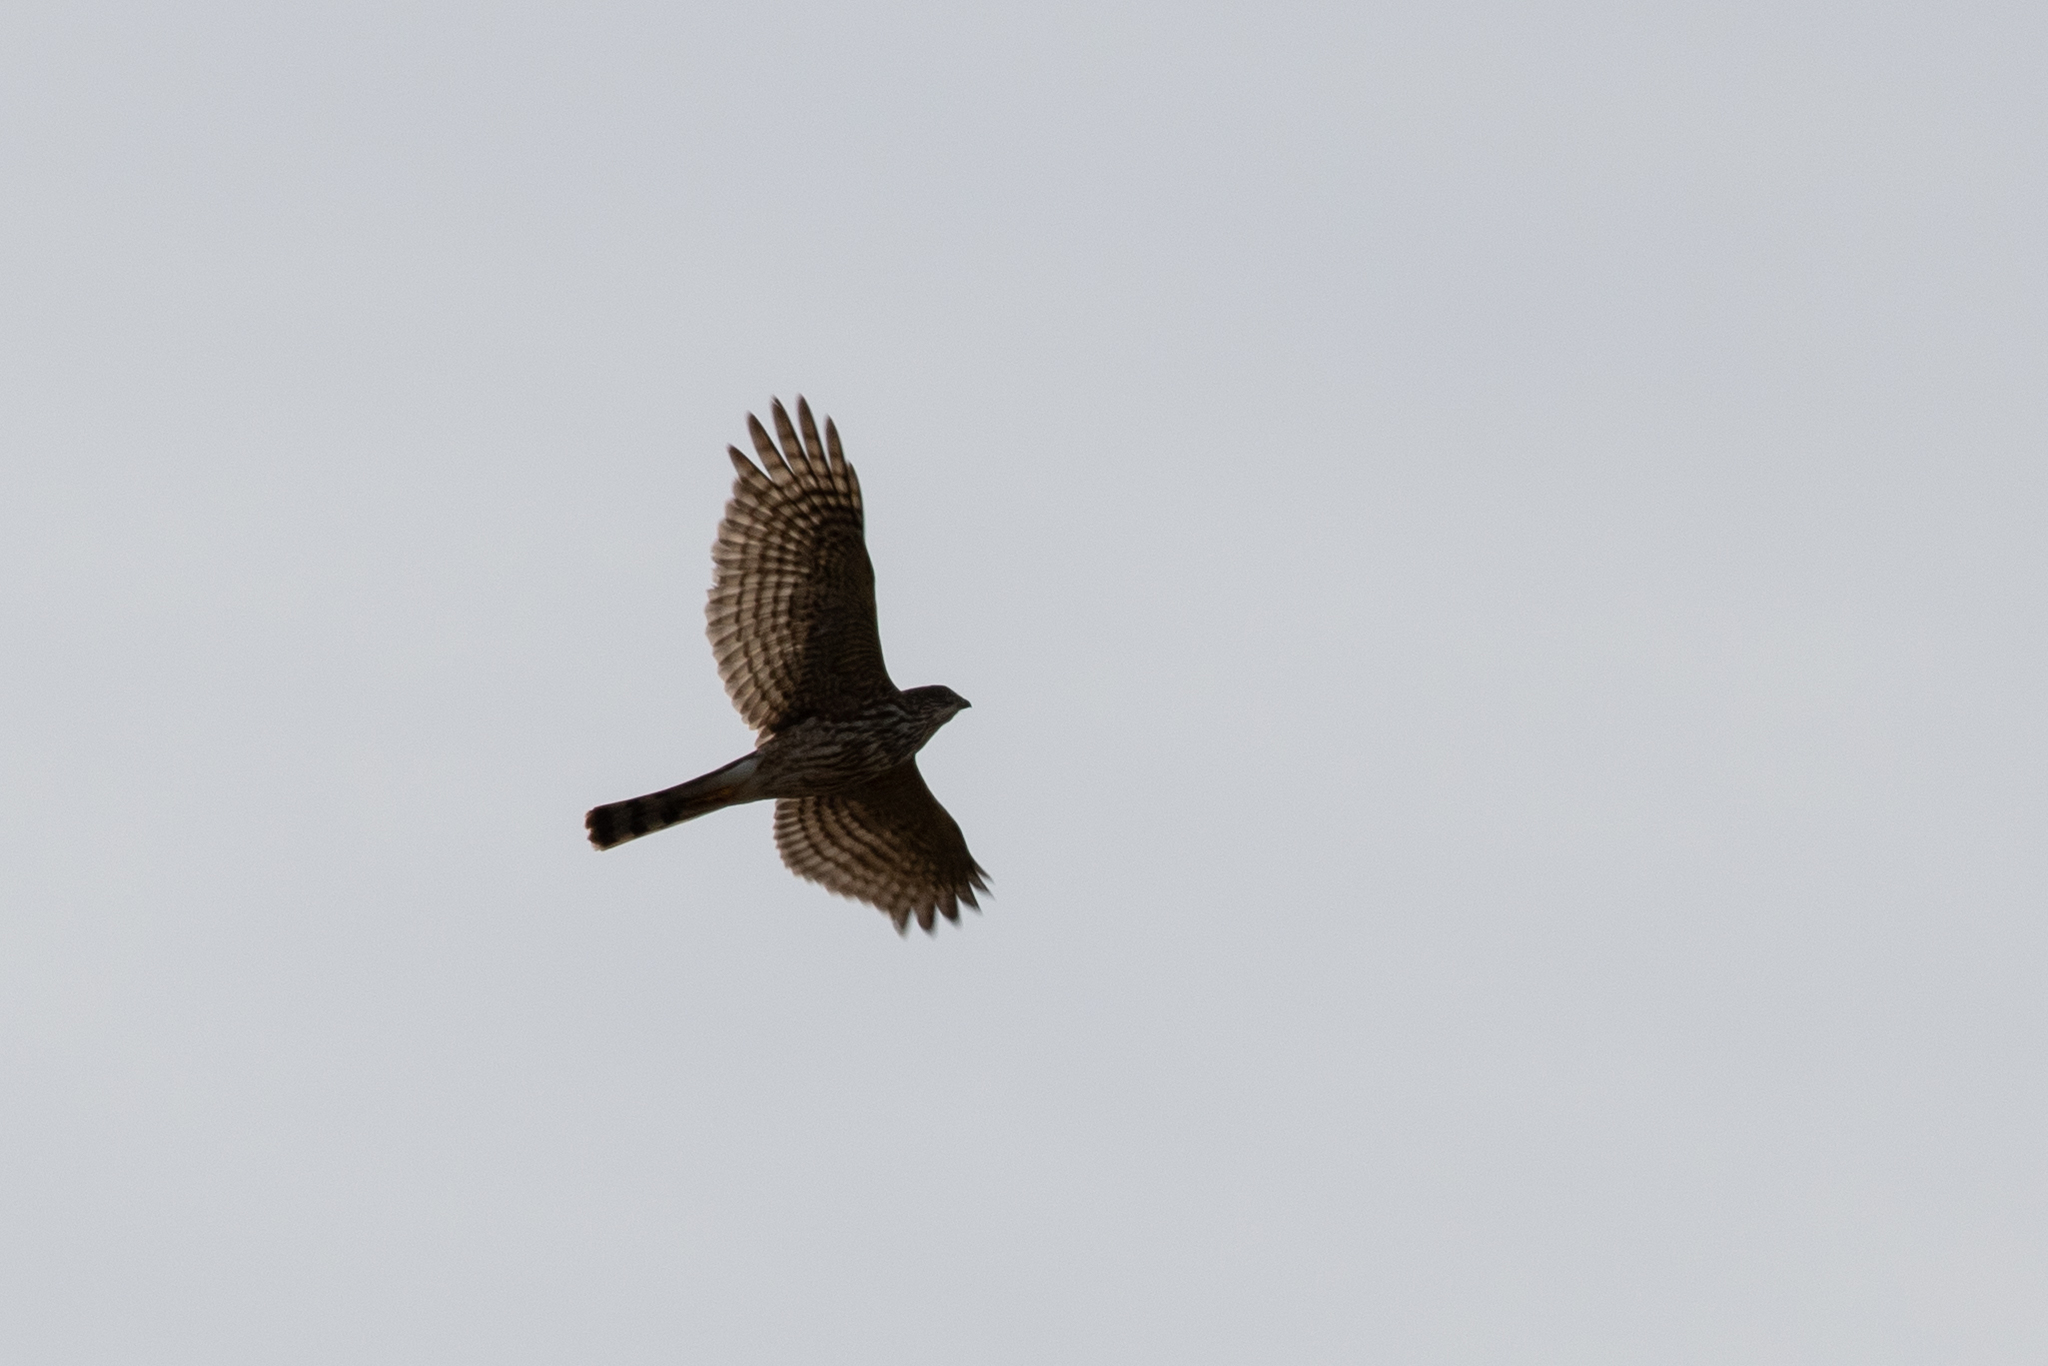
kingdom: Animalia
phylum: Chordata
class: Aves
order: Accipitriformes
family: Accipitridae
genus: Accipiter
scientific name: Accipiter striatus
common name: Sharp-shinned hawk
